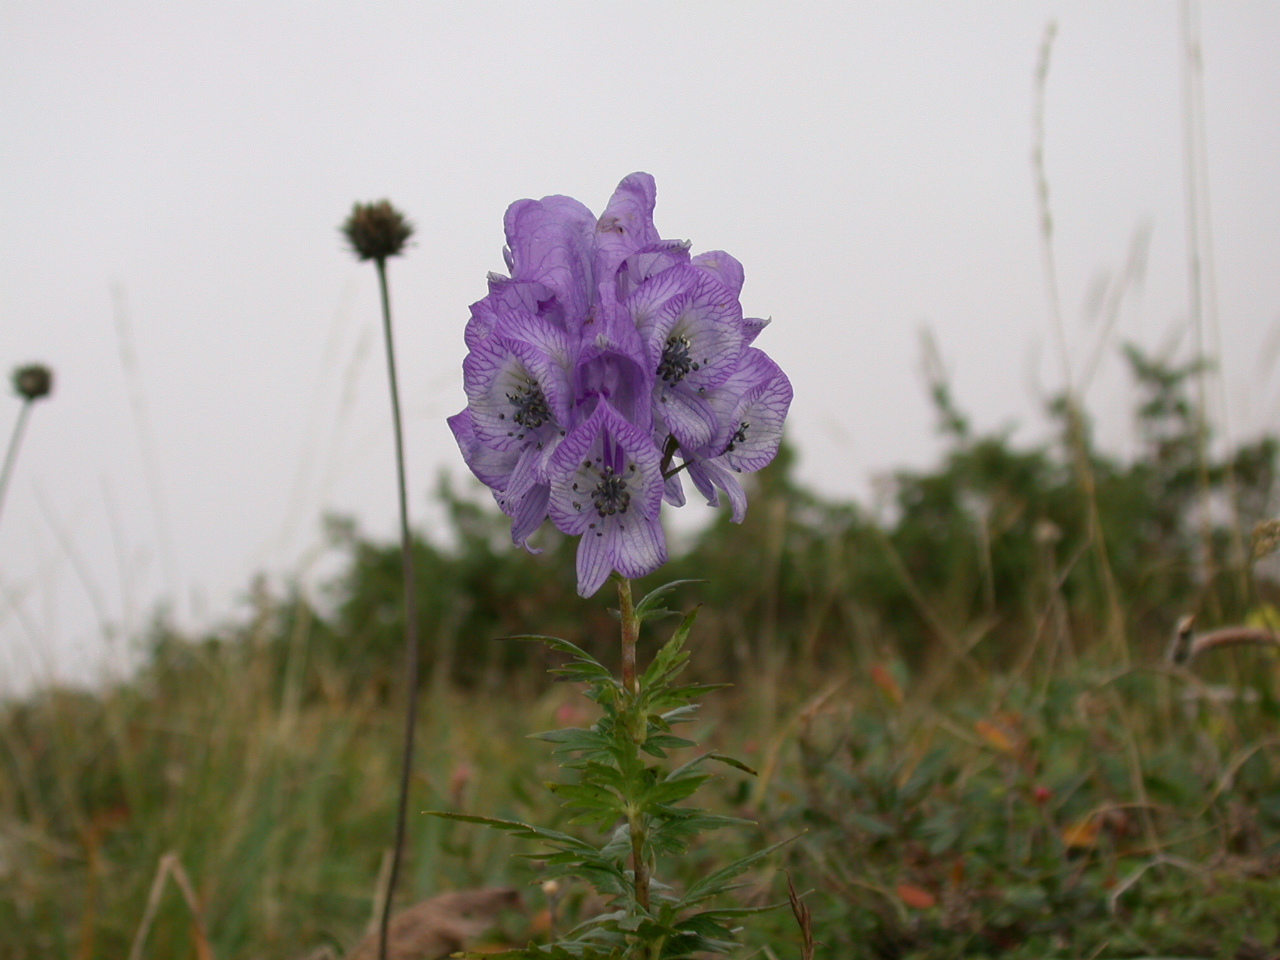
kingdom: Plantae
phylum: Tracheophyta
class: Magnoliopsida
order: Ranunculales
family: Ranunculaceae
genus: Aconitum
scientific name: Aconitum
